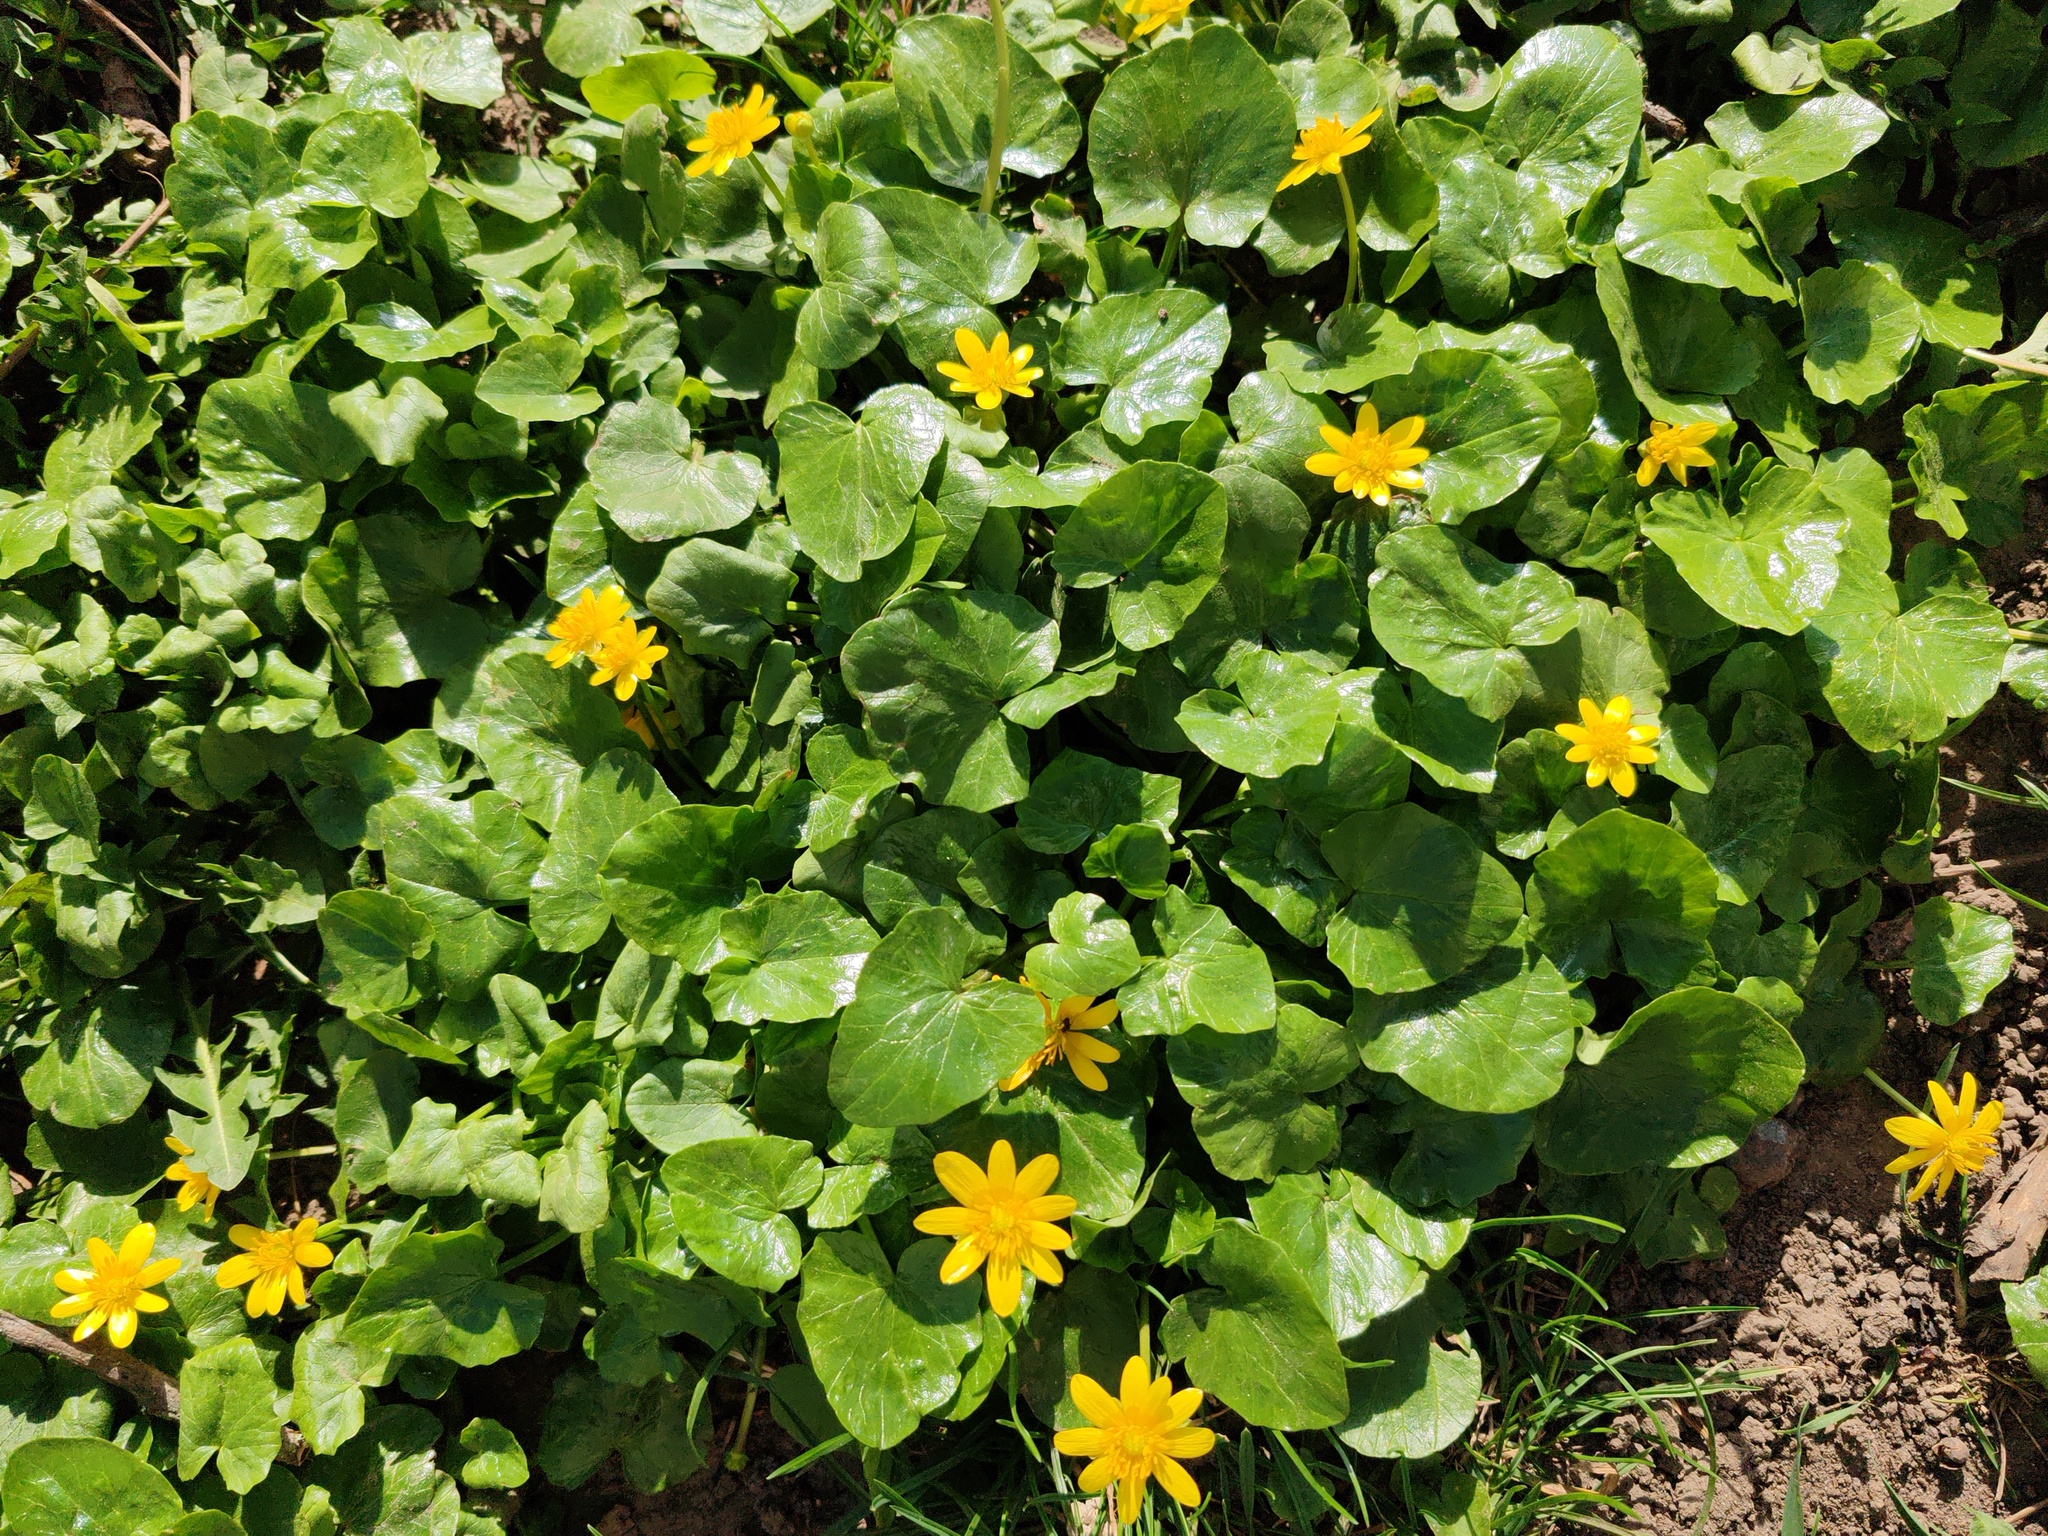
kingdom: Plantae
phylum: Tracheophyta
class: Magnoliopsida
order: Ranunculales
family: Ranunculaceae
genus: Ficaria
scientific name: Ficaria verna
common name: Lesser celandine
